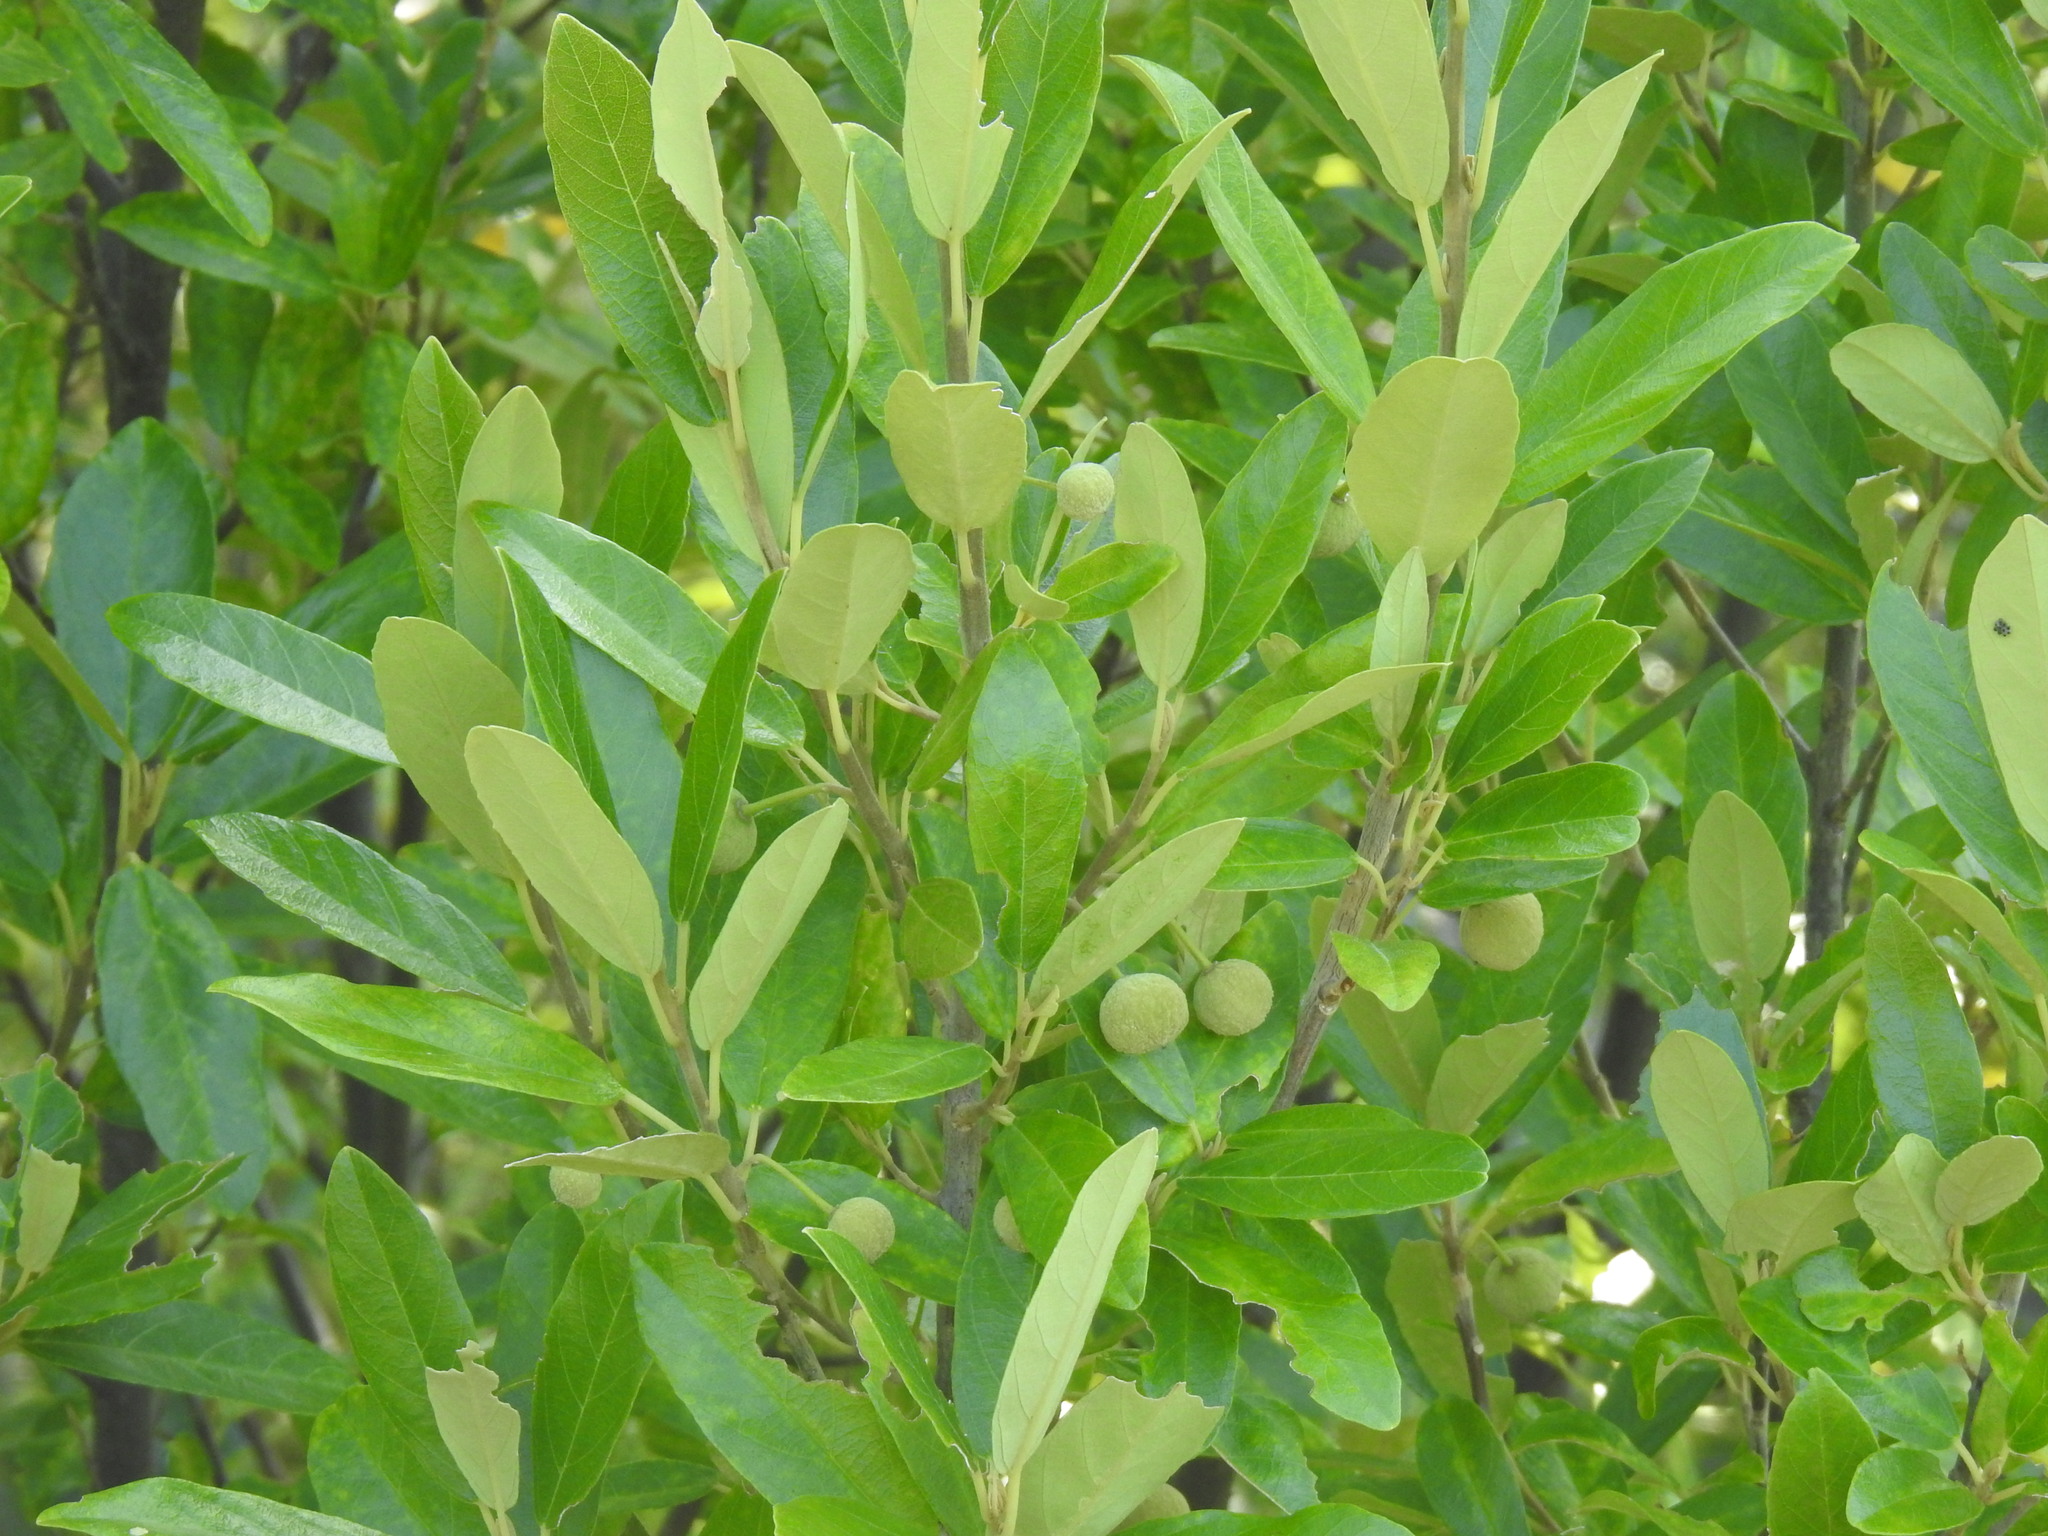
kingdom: Plantae
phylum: Tracheophyta
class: Magnoliopsida
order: Malpighiales
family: Achariaceae
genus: Kiggelaria
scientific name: Kiggelaria africana
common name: Wild peach
